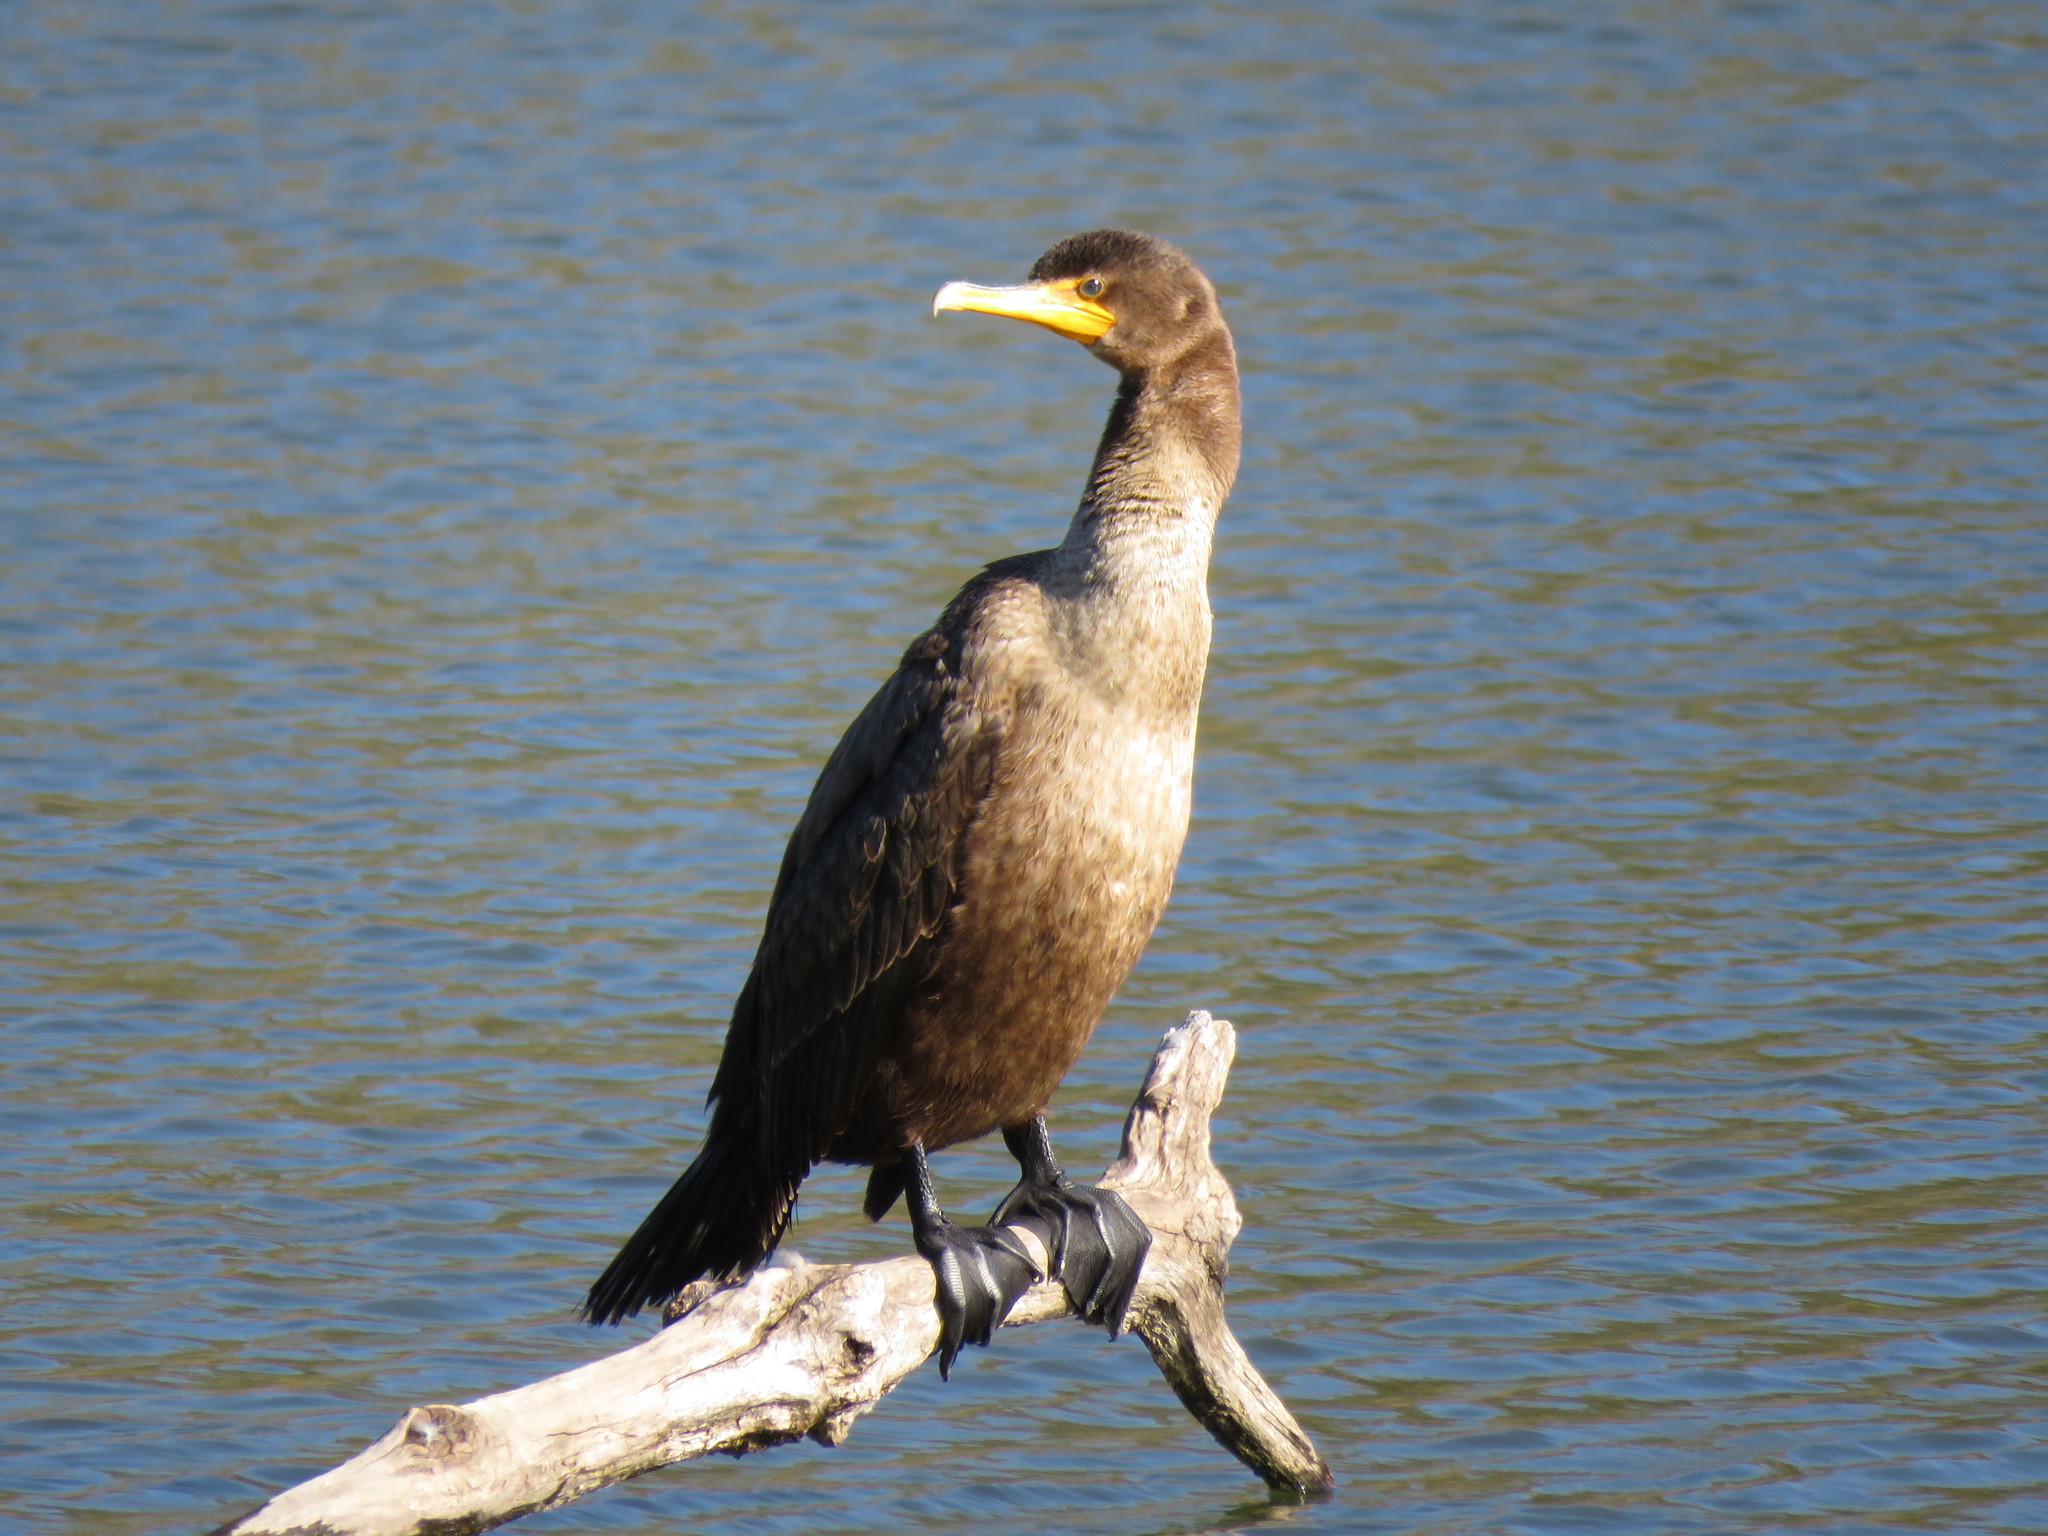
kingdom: Animalia
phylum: Chordata
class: Aves
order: Suliformes
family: Phalacrocoracidae
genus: Phalacrocorax
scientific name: Phalacrocorax auritus
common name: Double-crested cormorant
